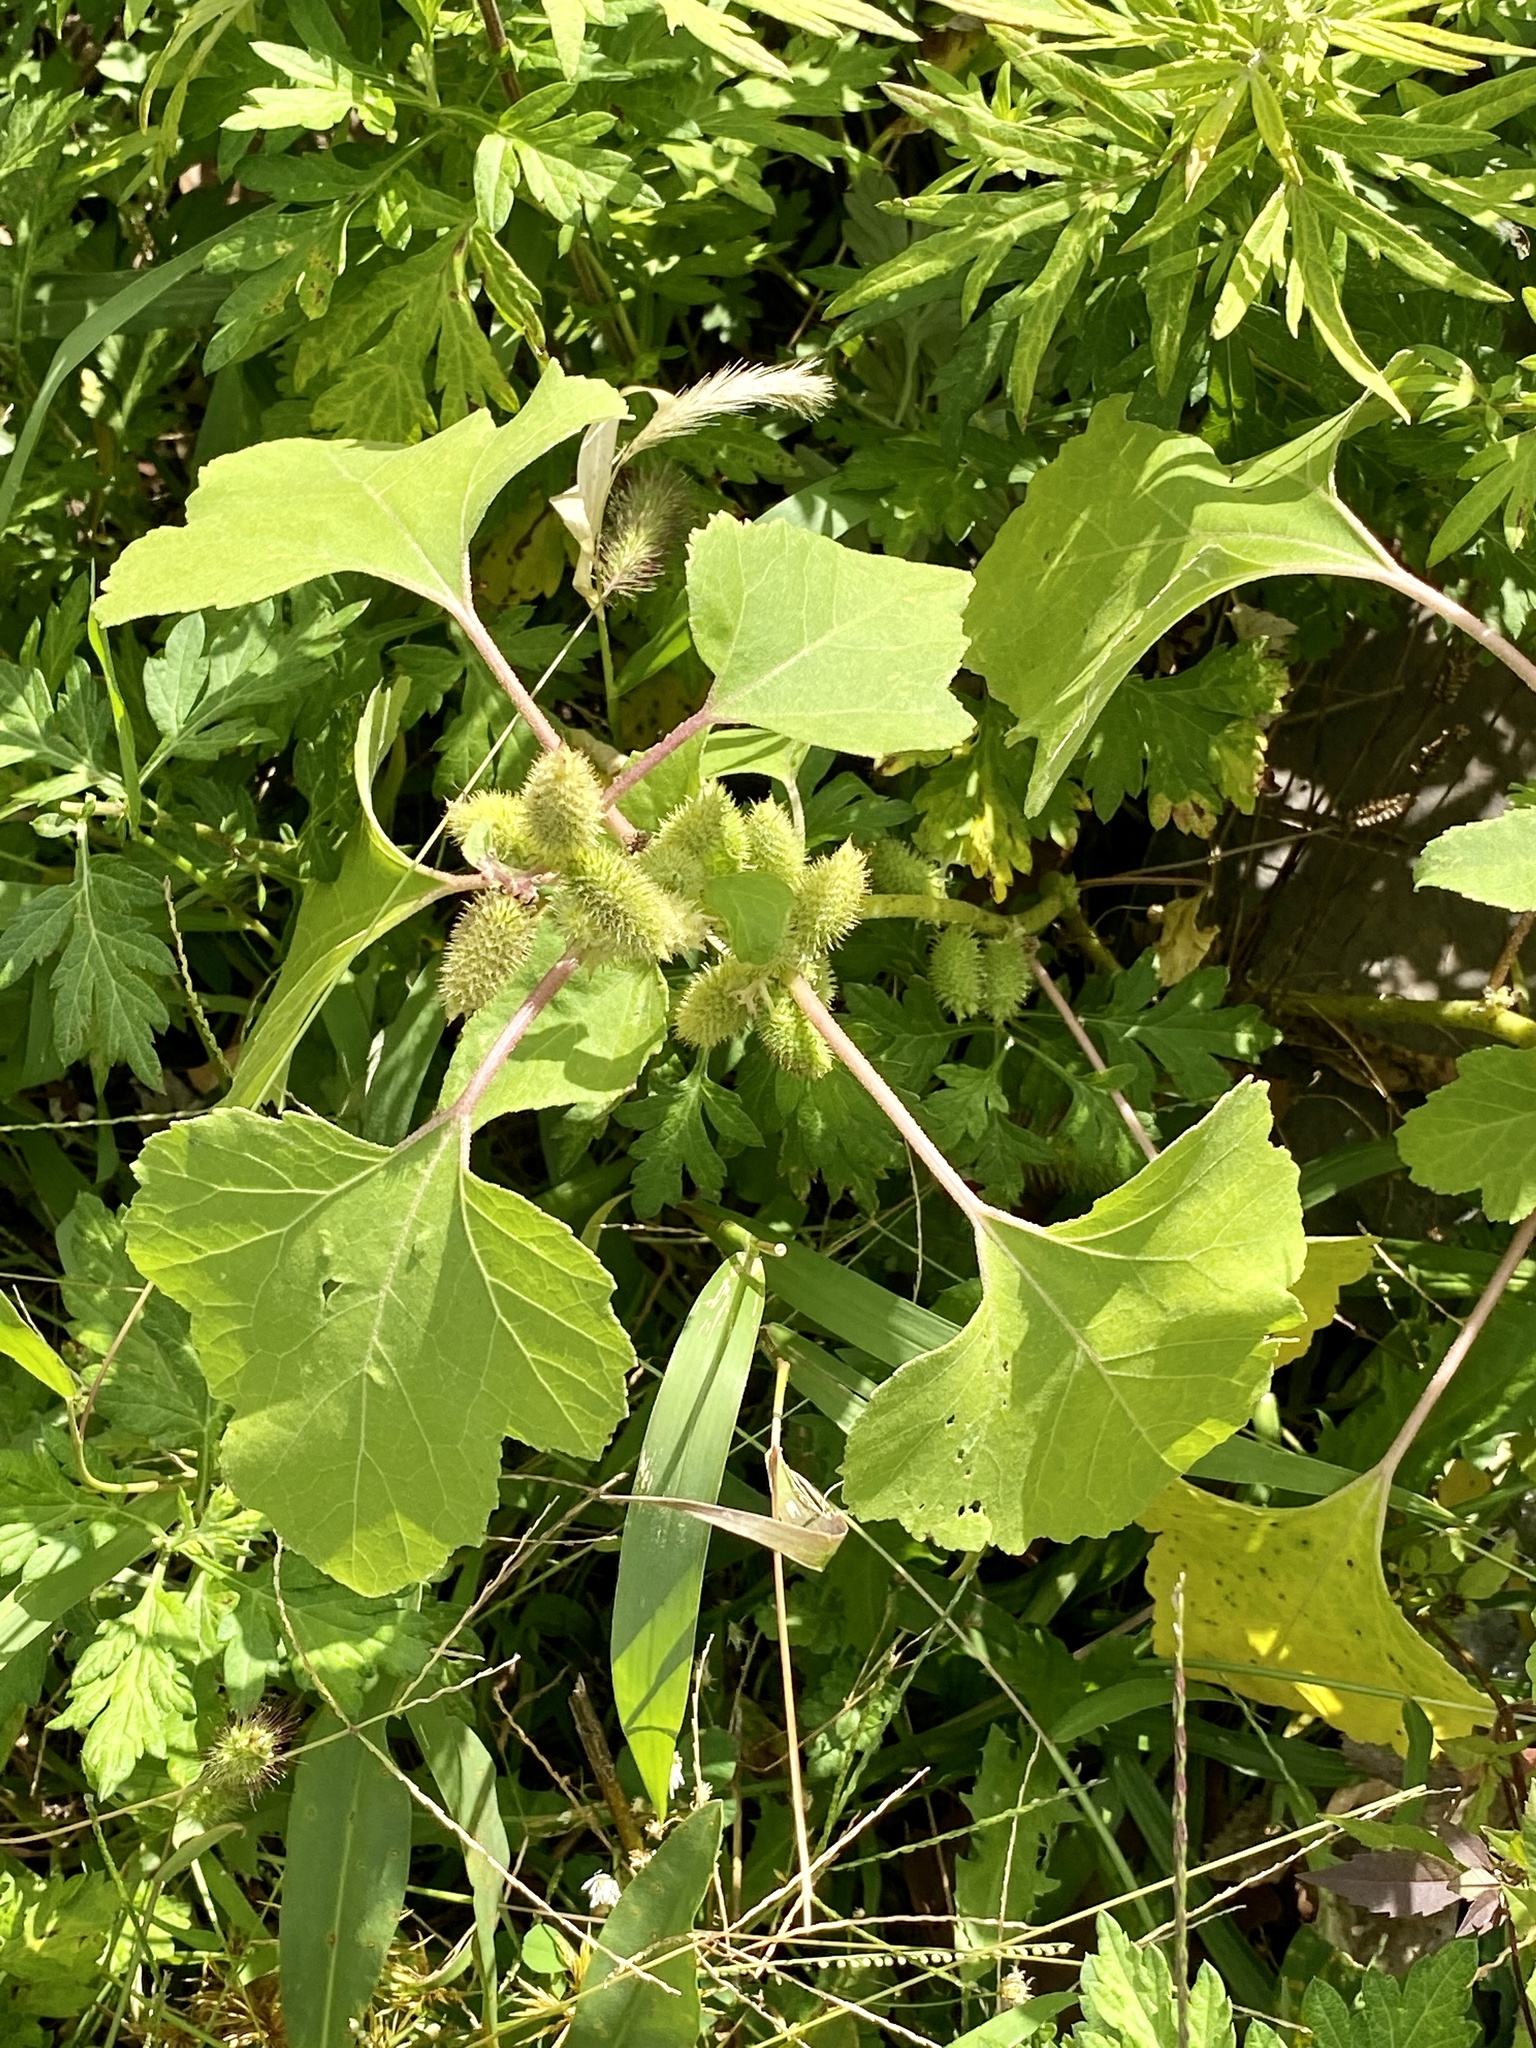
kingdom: Plantae
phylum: Tracheophyta
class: Magnoliopsida
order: Asterales
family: Asteraceae
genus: Xanthium
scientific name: Xanthium strumarium
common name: Rough cocklebur
